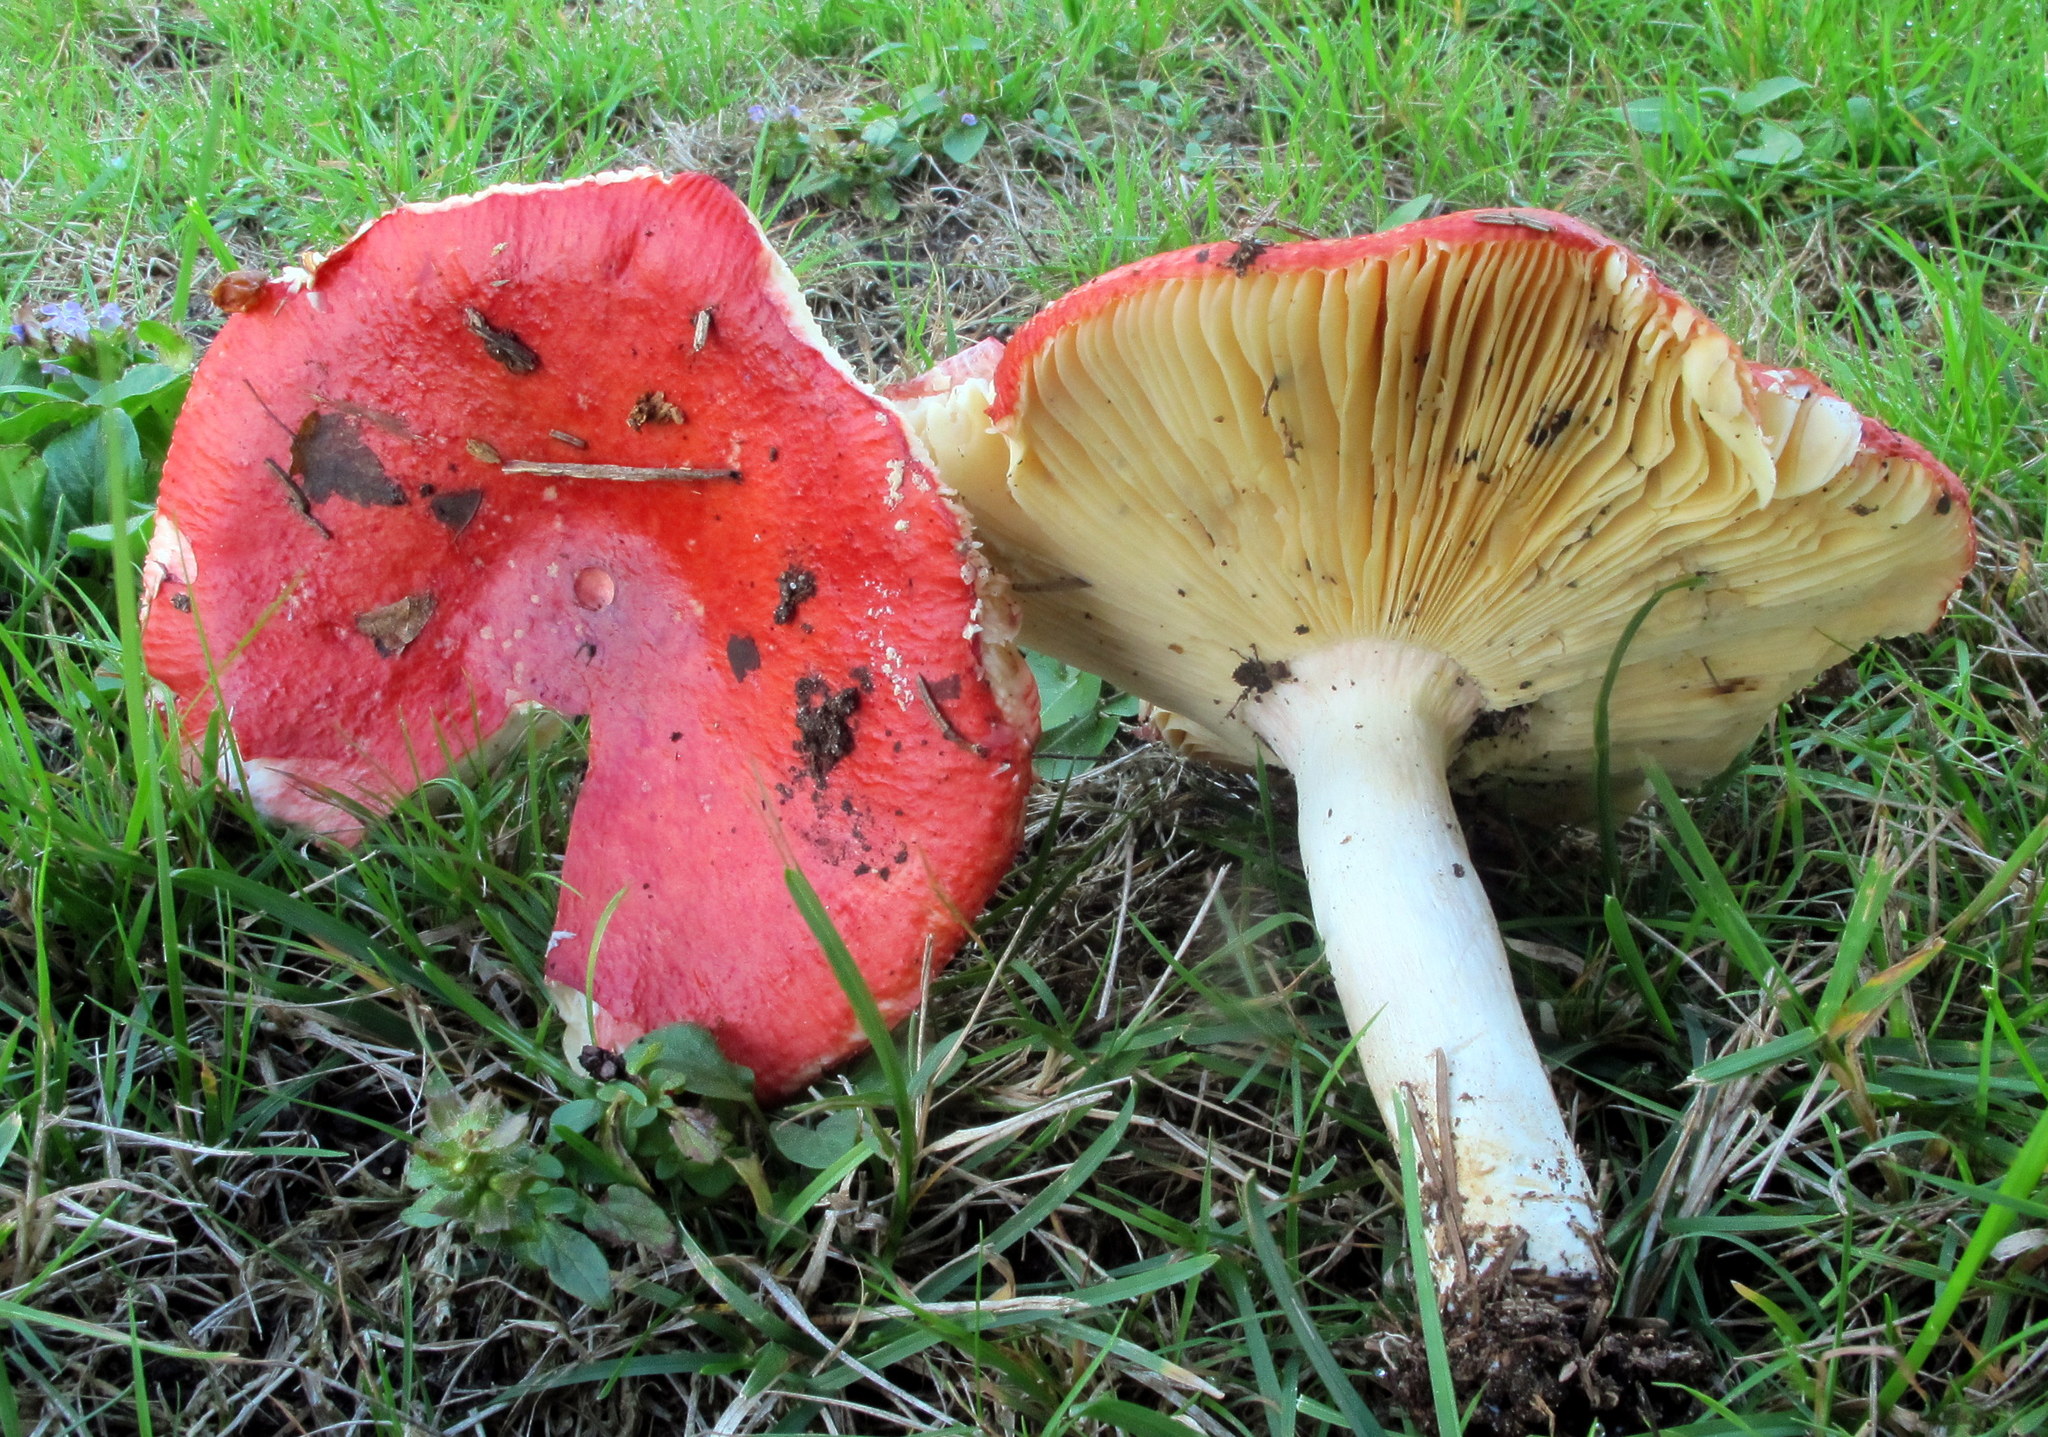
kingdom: Fungi
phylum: Basidiomycota
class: Agaricomycetes
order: Russulales
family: Russulaceae
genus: Russula
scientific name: Russula laeta
